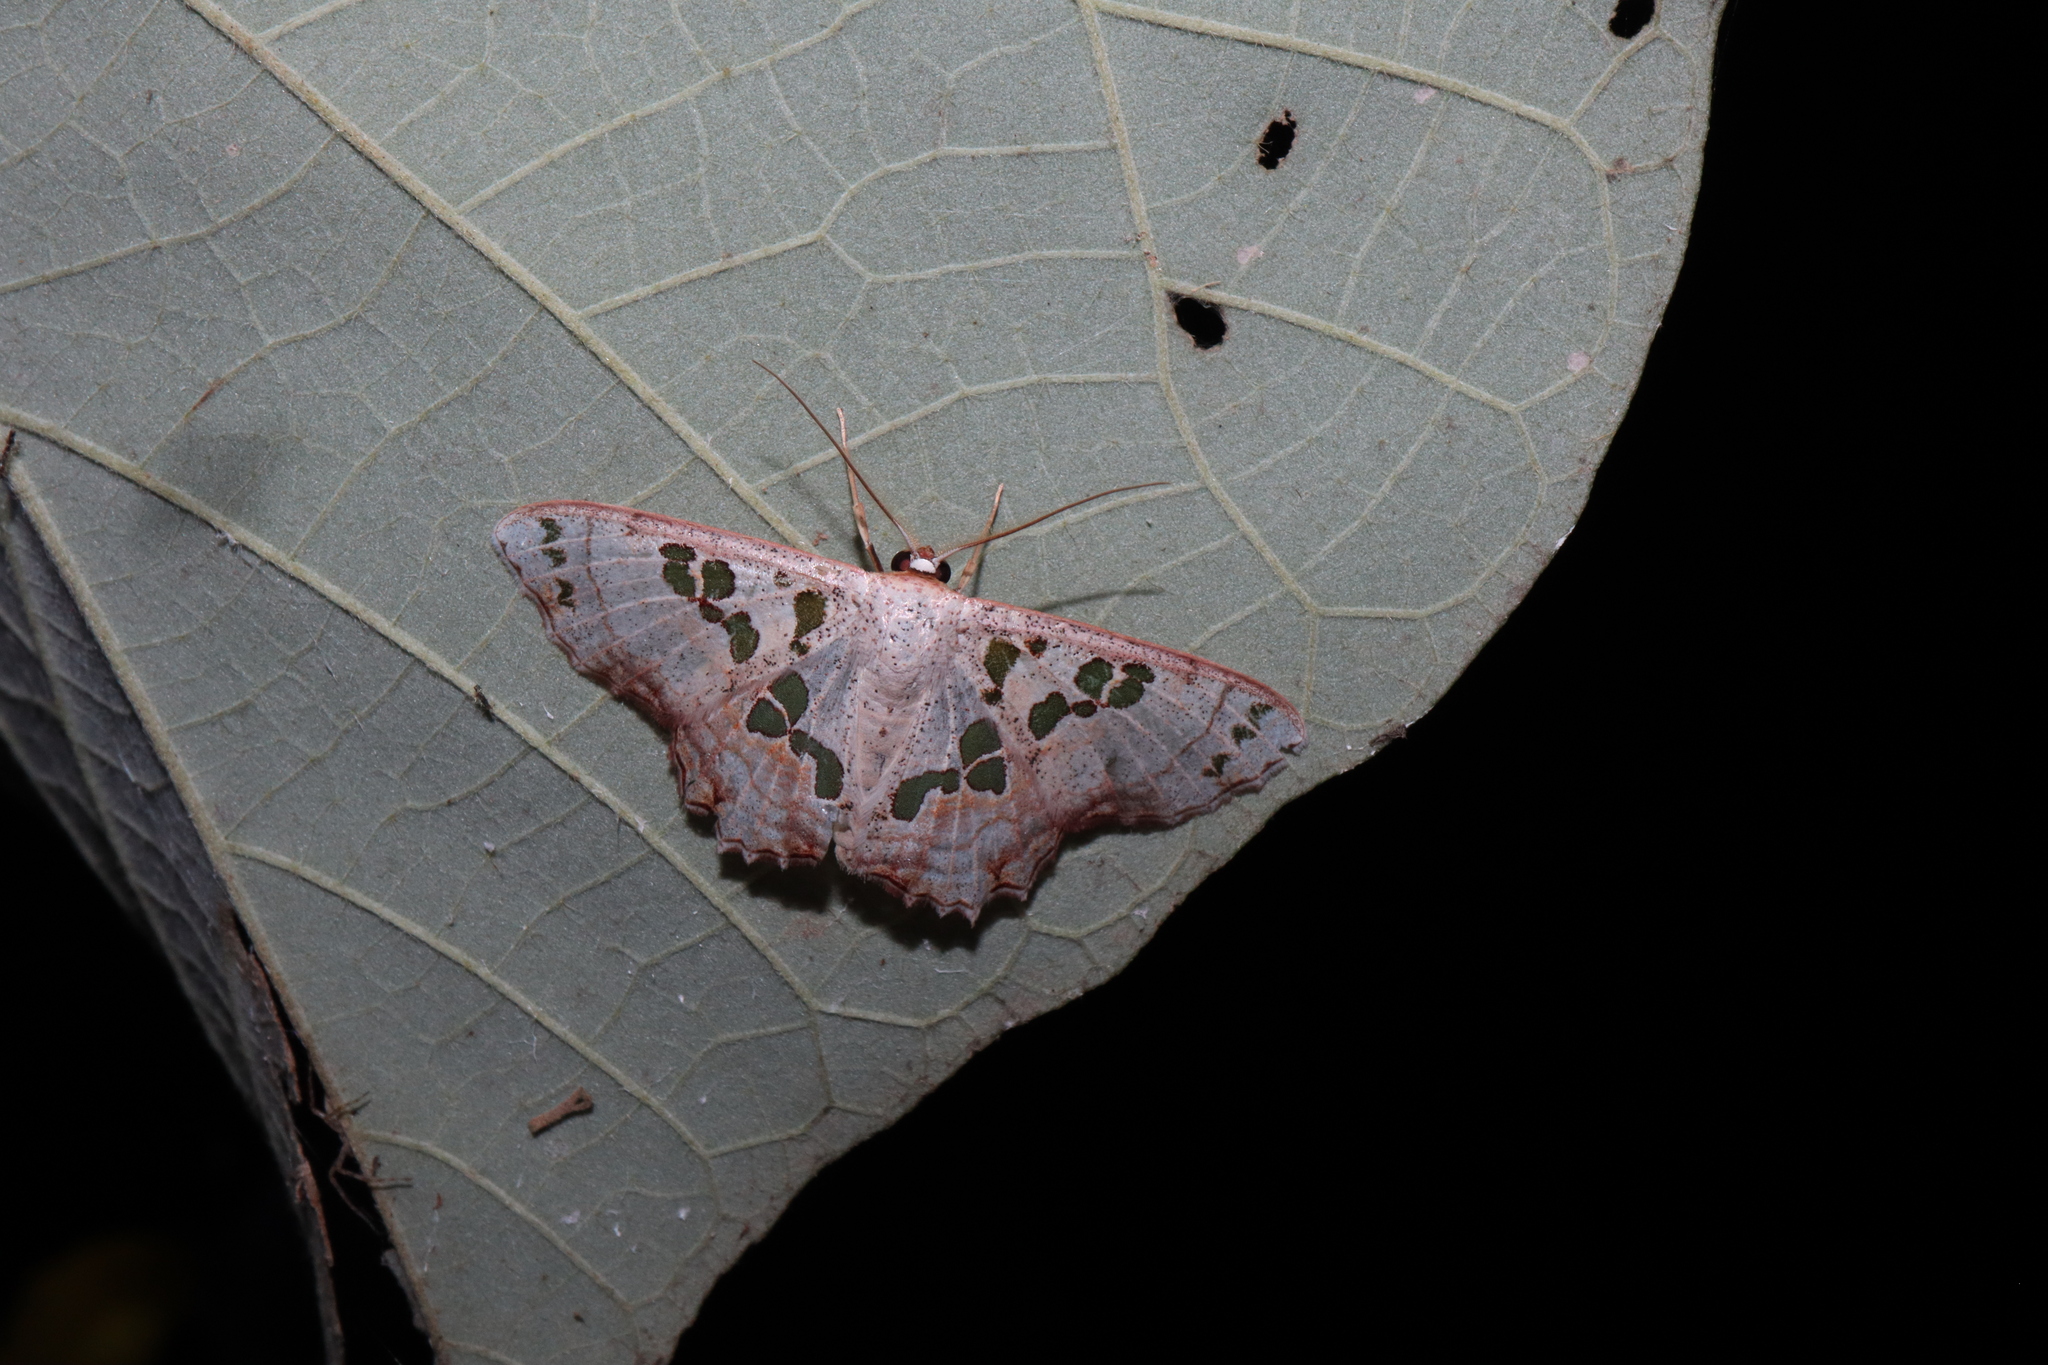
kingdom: Animalia
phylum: Arthropoda
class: Insecta
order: Lepidoptera
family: Geometridae
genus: Scopula
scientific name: Scopula parvimacula
